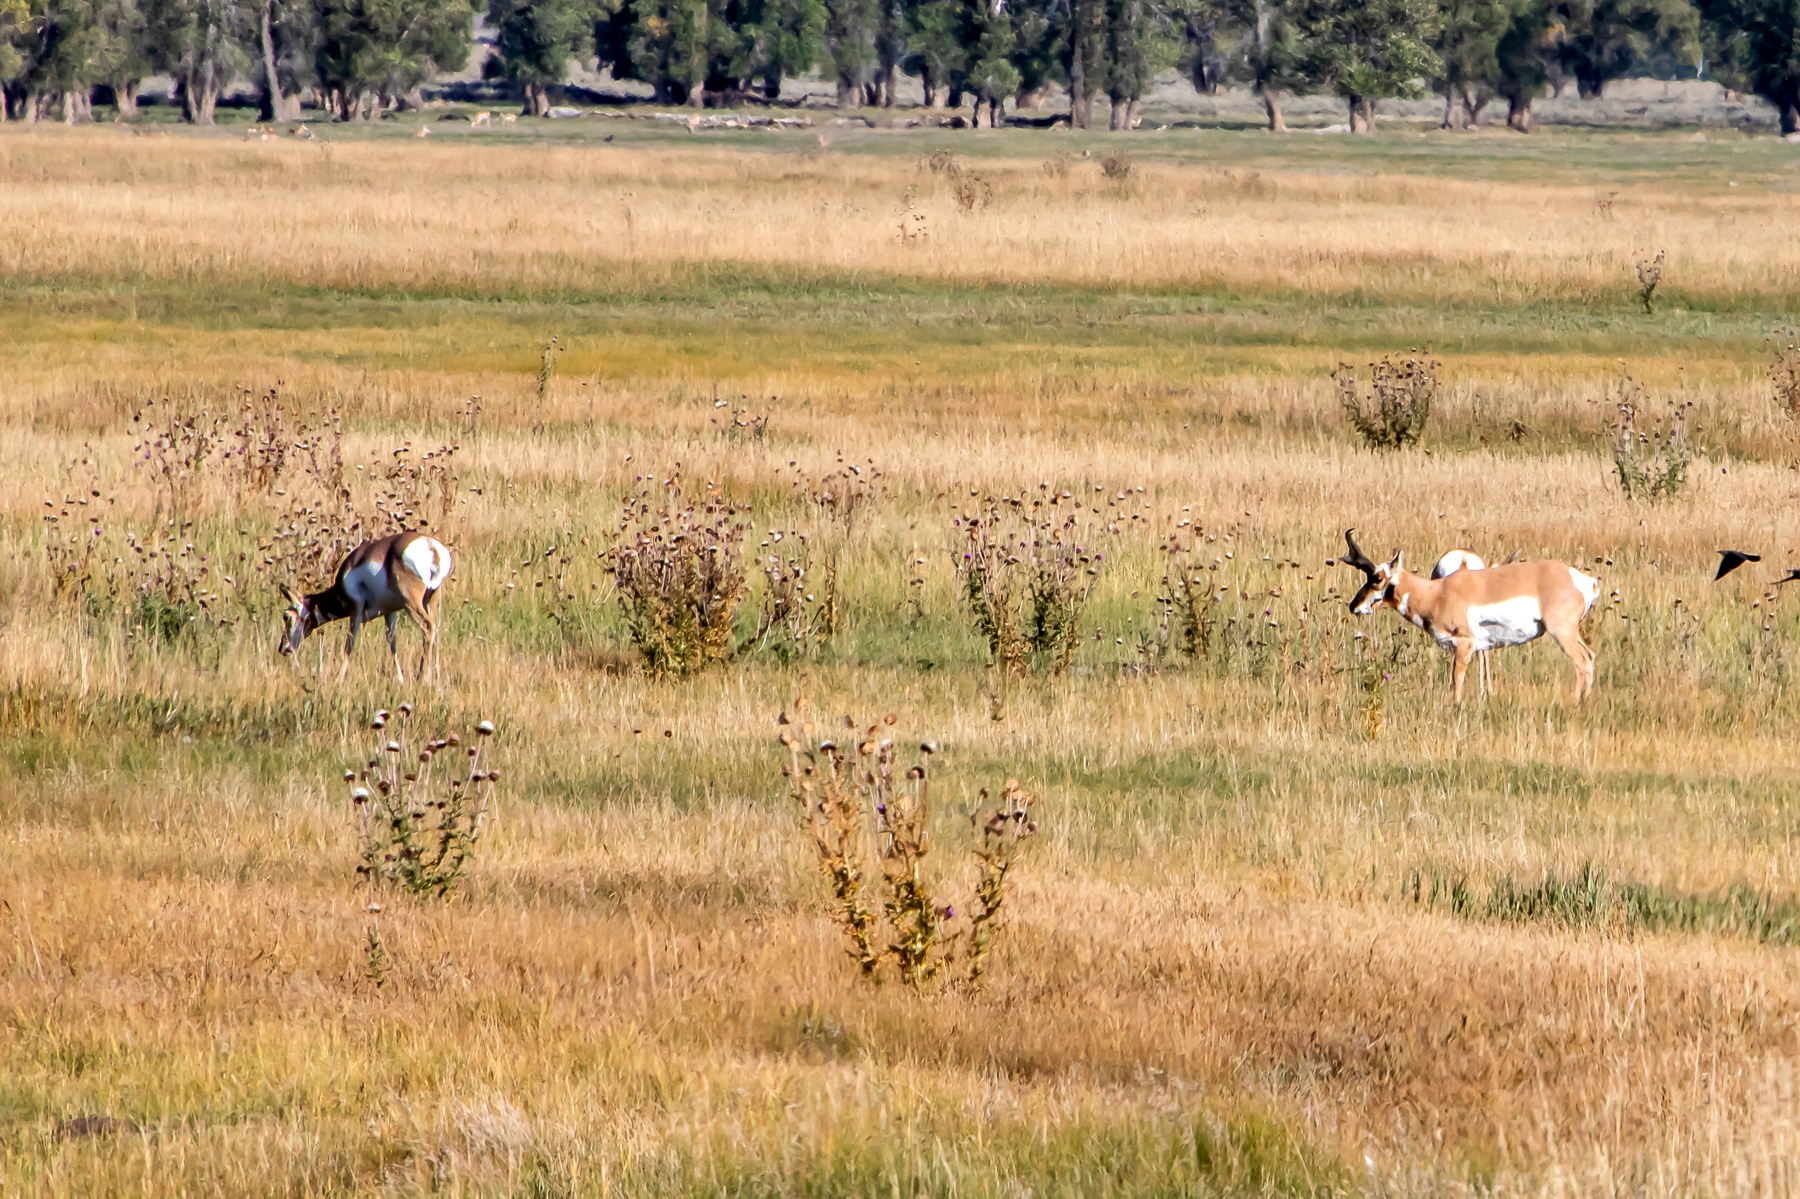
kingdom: Animalia
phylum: Chordata
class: Mammalia
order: Artiodactyla
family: Antilocapridae
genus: Antilocapra
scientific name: Antilocapra americana
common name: Pronghorn
